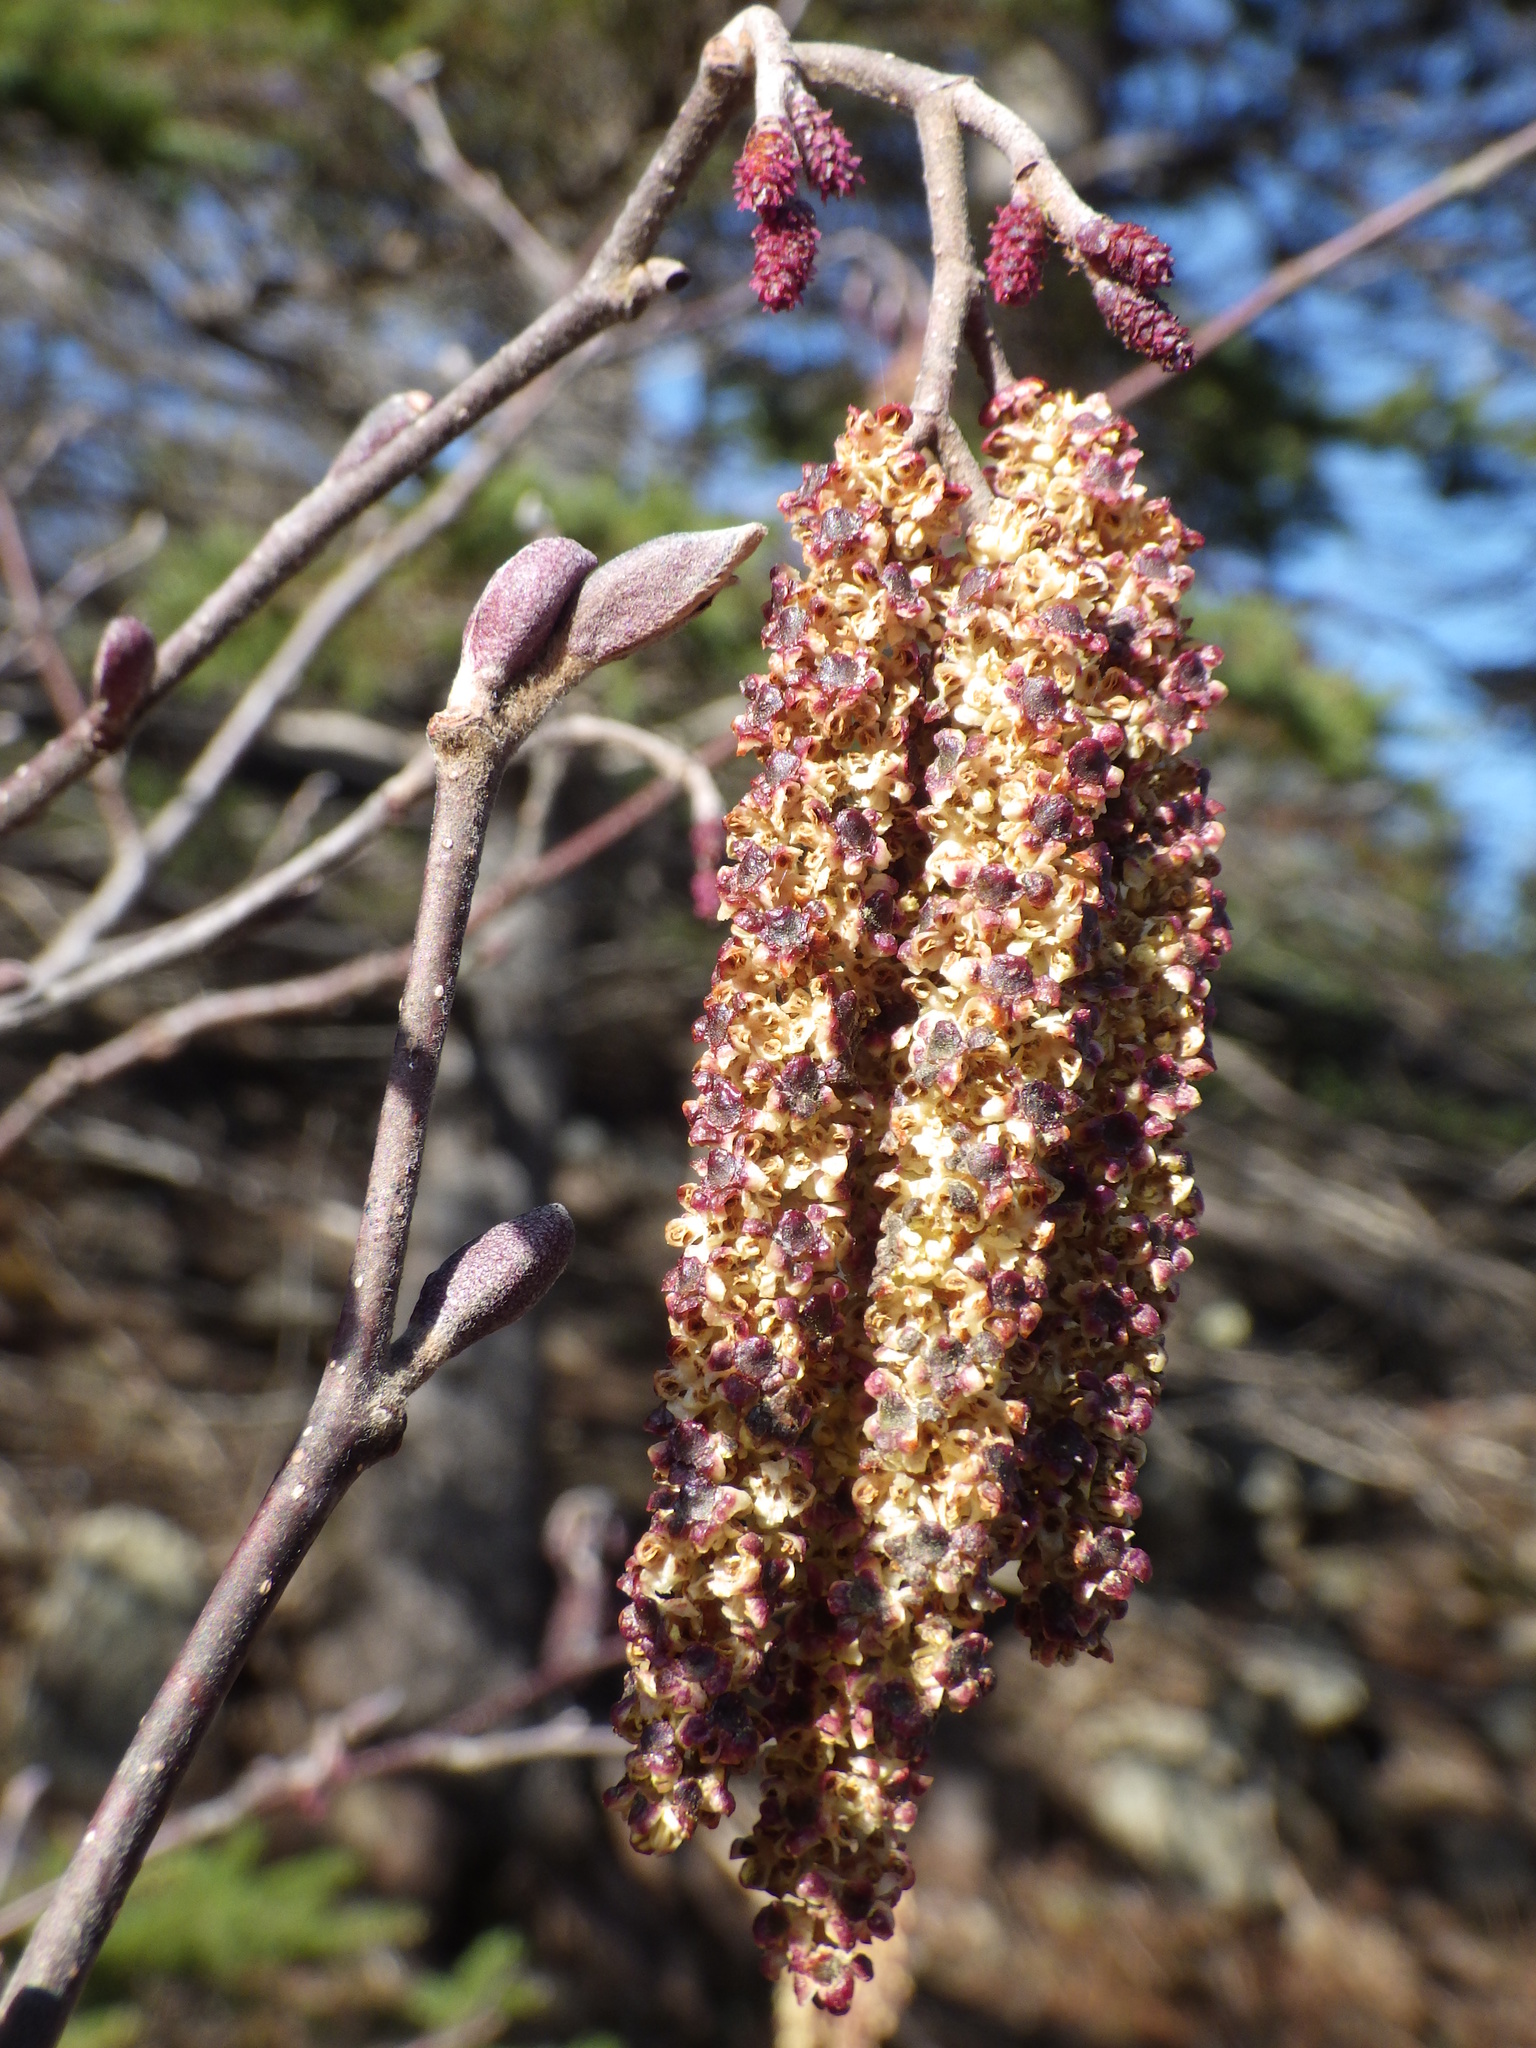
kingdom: Plantae
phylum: Tracheophyta
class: Magnoliopsida
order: Fagales
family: Betulaceae
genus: Alnus
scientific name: Alnus incana
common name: Grey alder
